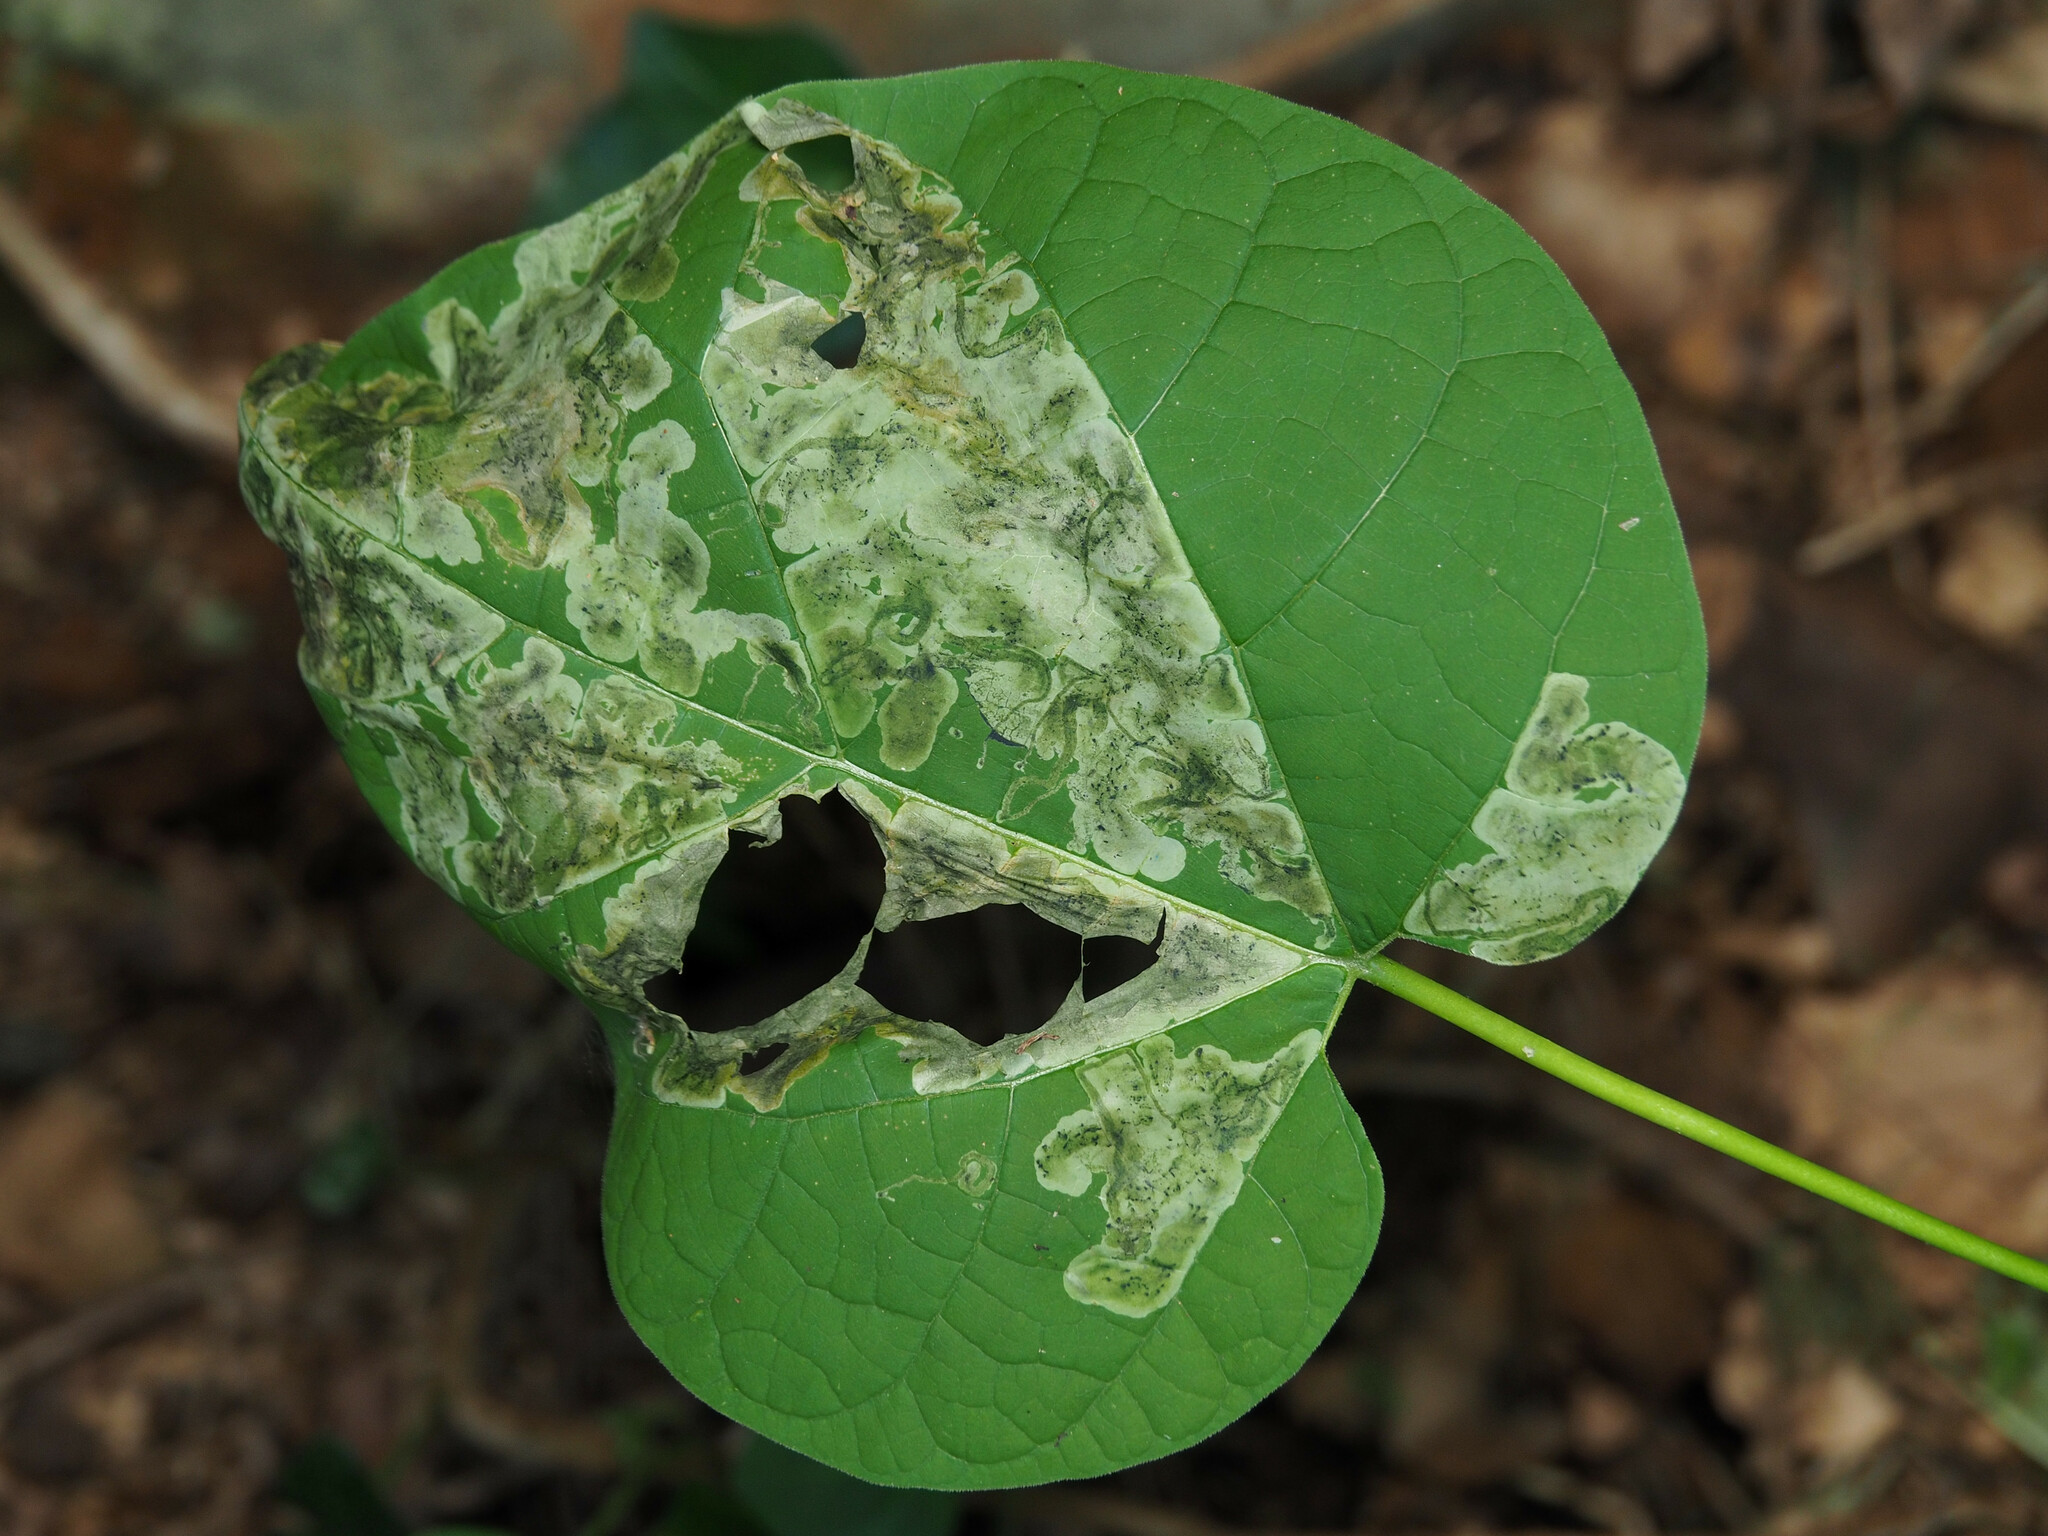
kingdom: Animalia
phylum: Arthropoda
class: Insecta
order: Diptera
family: Agromyzidae
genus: Amauromyza
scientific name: Amauromyza pleuralis
